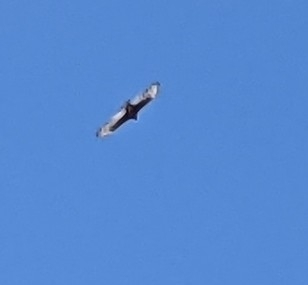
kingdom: Animalia
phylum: Chordata
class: Aves
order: Accipitriformes
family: Cathartidae
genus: Cathartes
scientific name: Cathartes aura
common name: Turkey vulture
